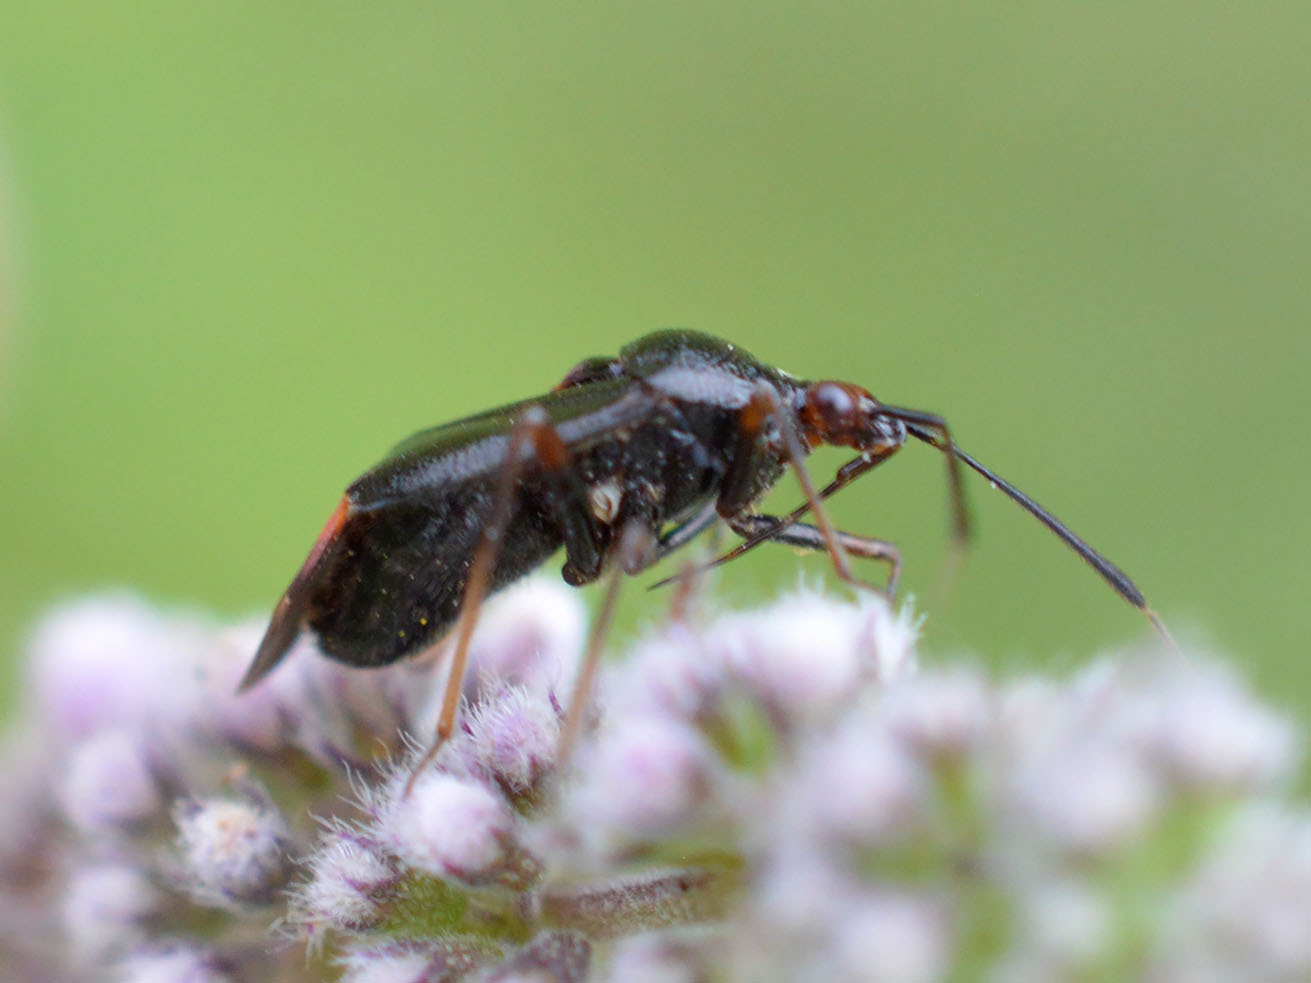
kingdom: Animalia
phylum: Arthropoda
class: Insecta
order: Hemiptera
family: Miridae
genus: Deraeocoris
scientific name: Deraeocoris ruber
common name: Plant bug
